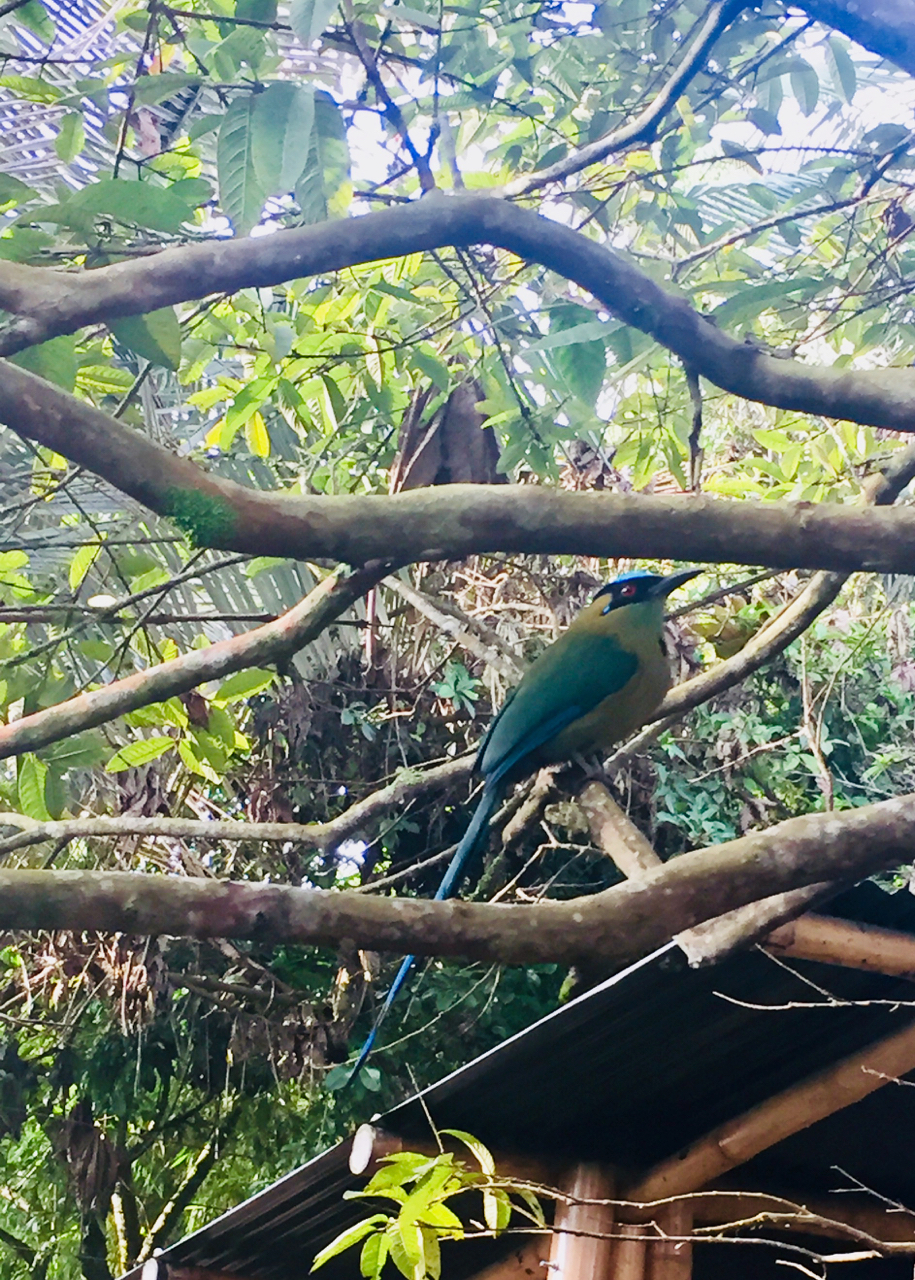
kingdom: Animalia
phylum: Chordata
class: Aves
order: Coraciiformes
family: Momotidae
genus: Momotus
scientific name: Momotus aequatorialis
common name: Andean motmot
